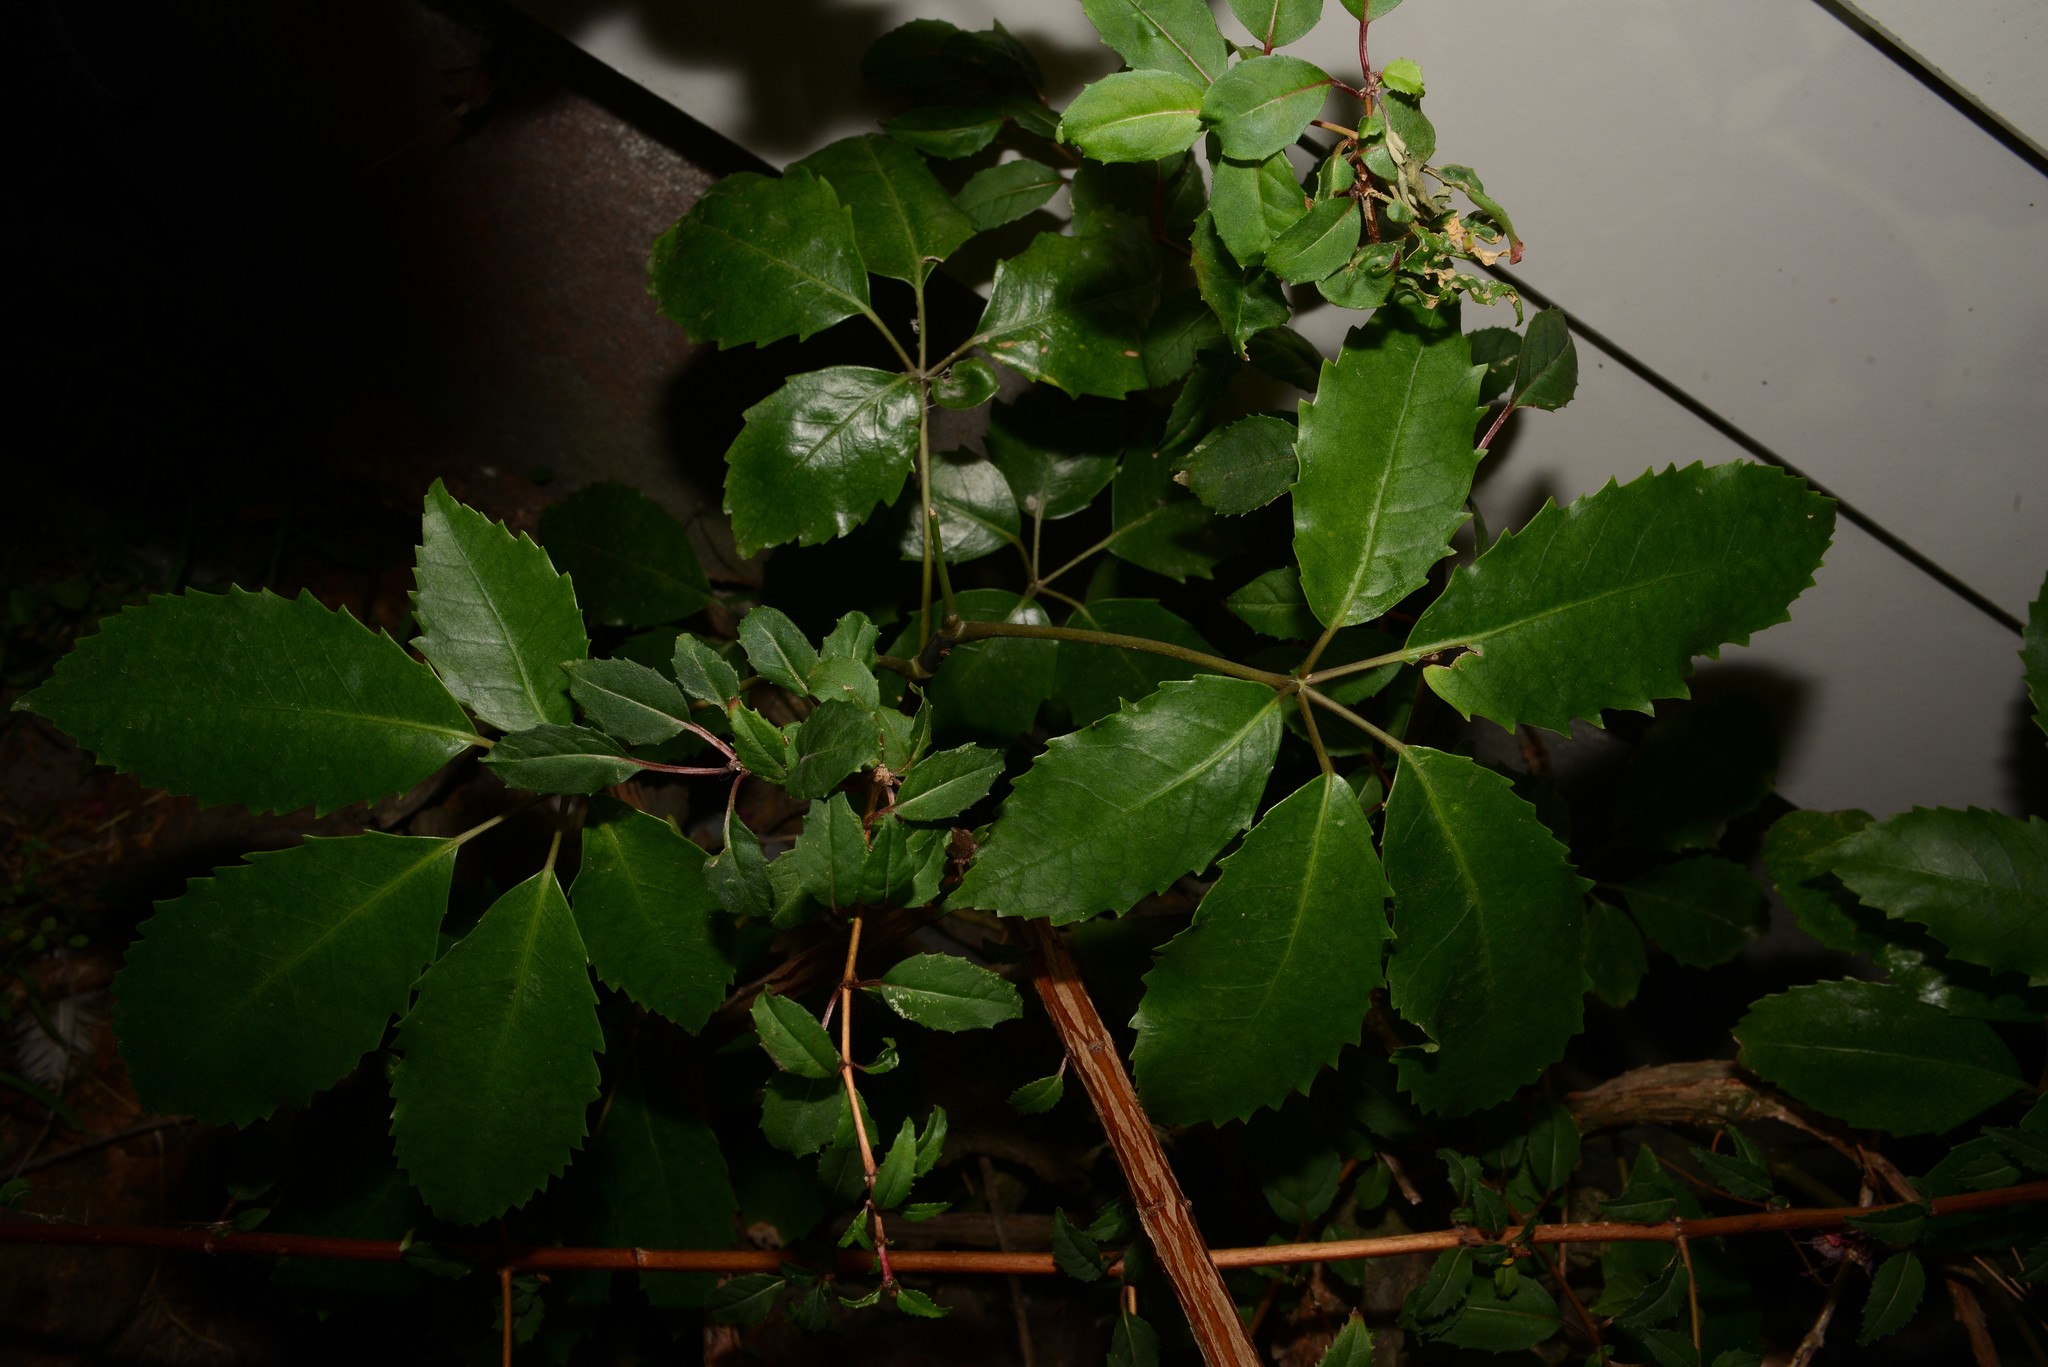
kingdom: Plantae
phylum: Tracheophyta
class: Magnoliopsida
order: Apiales
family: Araliaceae
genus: Neopanax
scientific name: Neopanax arboreus
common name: Five-fingers
